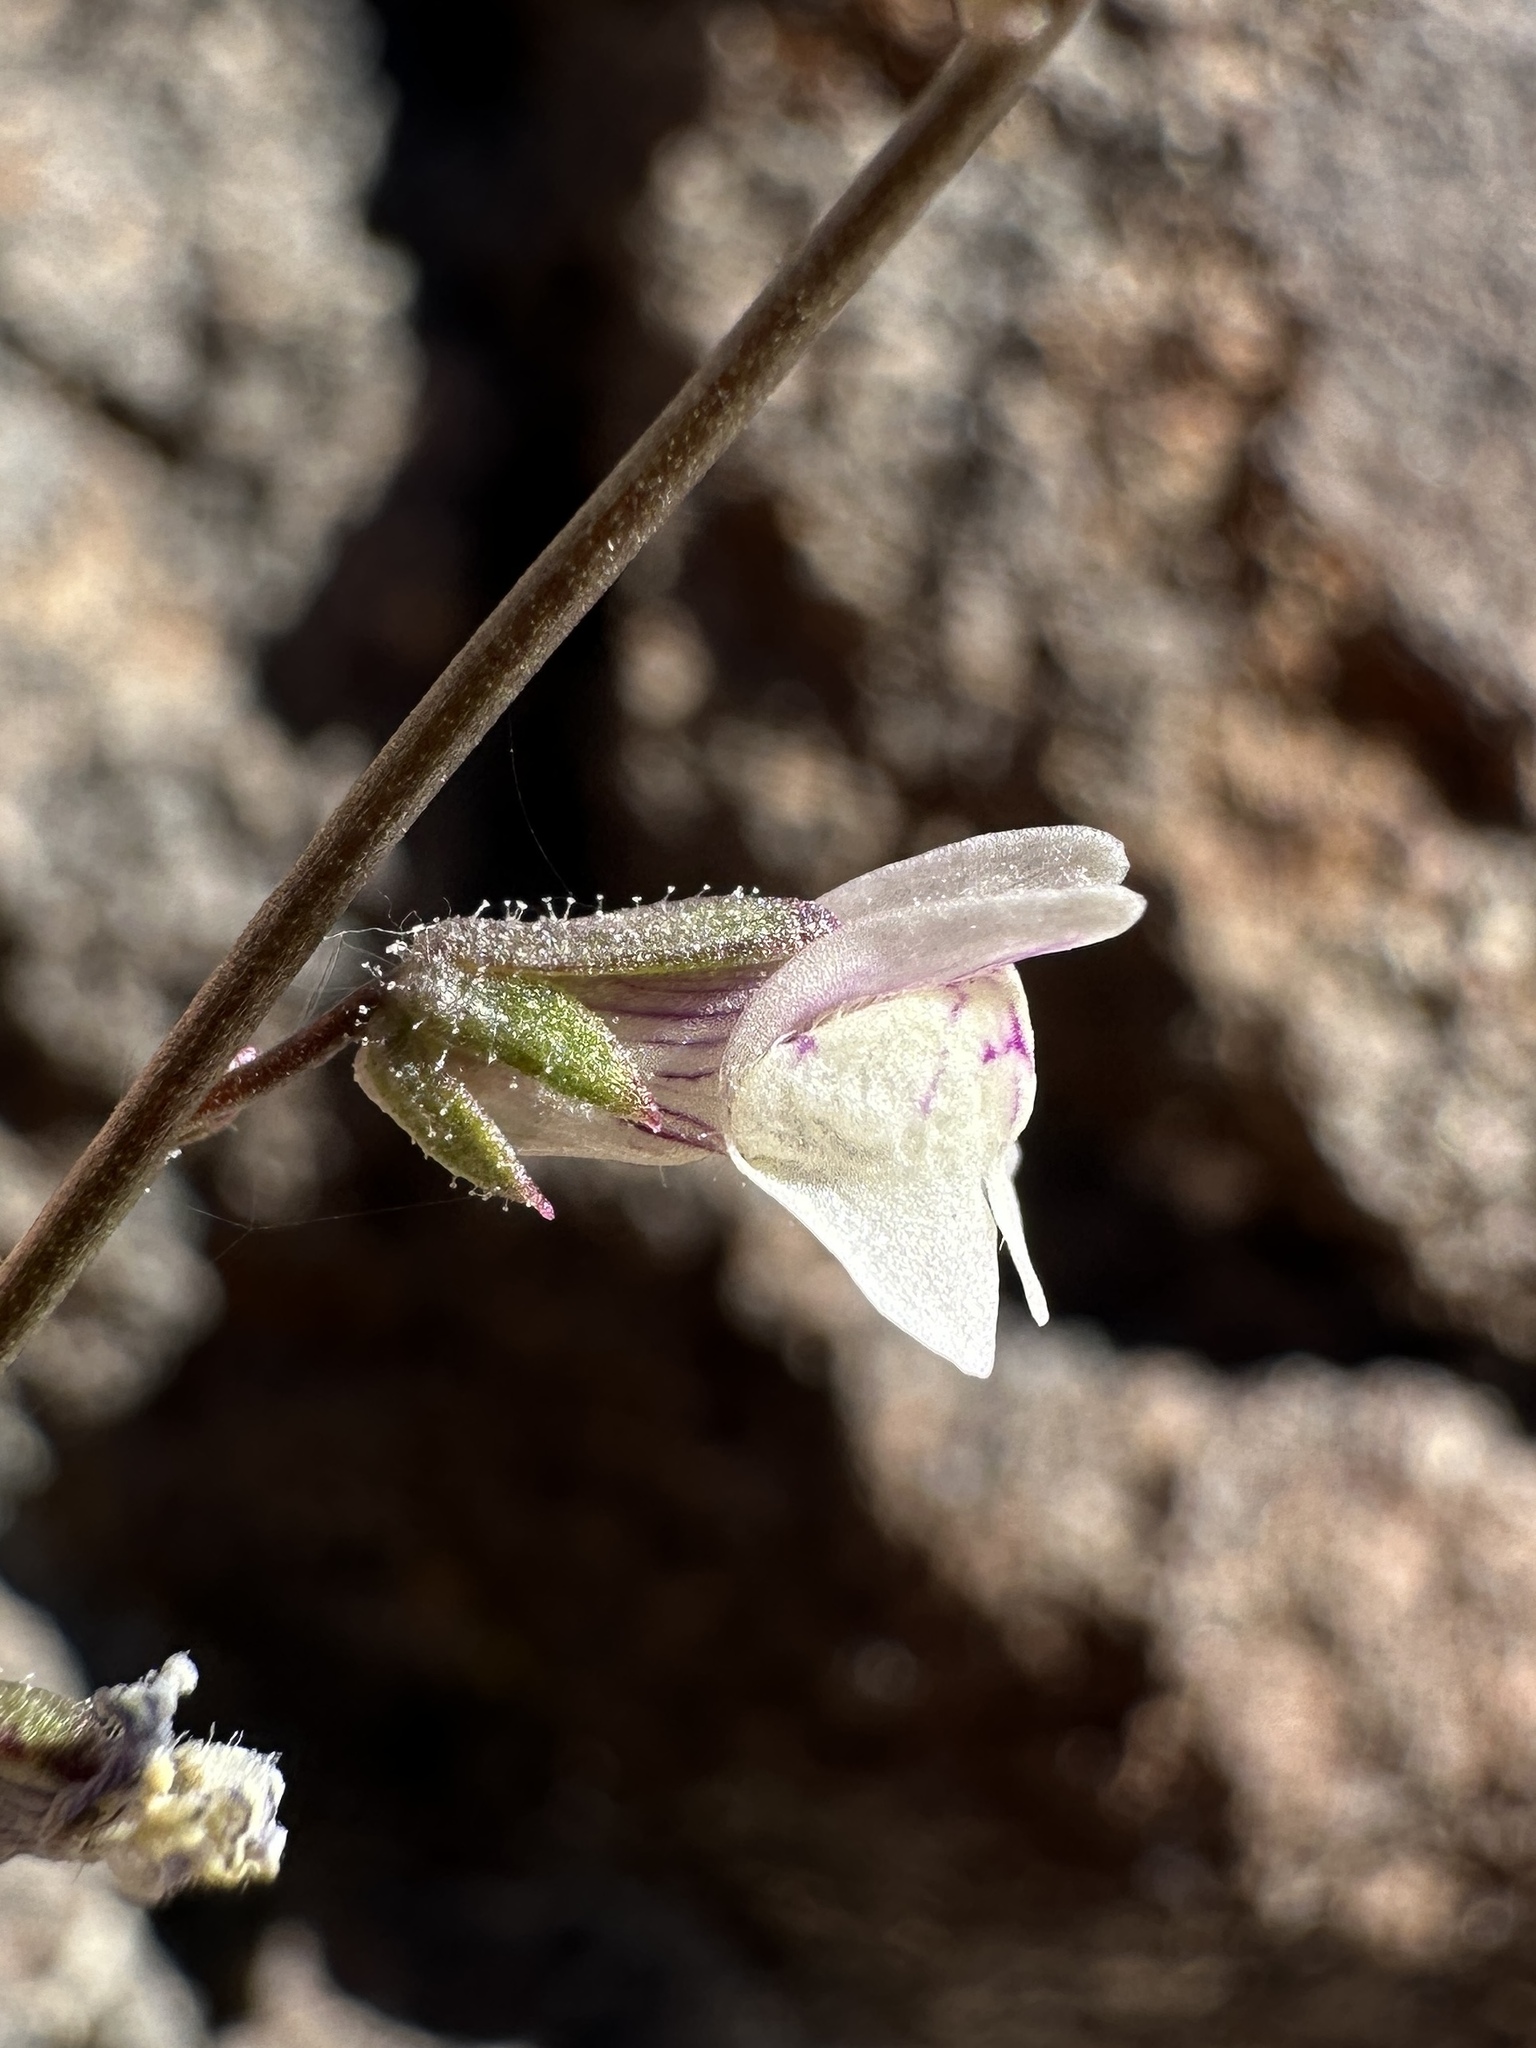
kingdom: Plantae
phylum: Tracheophyta
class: Magnoliopsida
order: Lamiales
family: Plantaginaceae
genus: Sairocarpus
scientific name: Sairocarpus kingii
